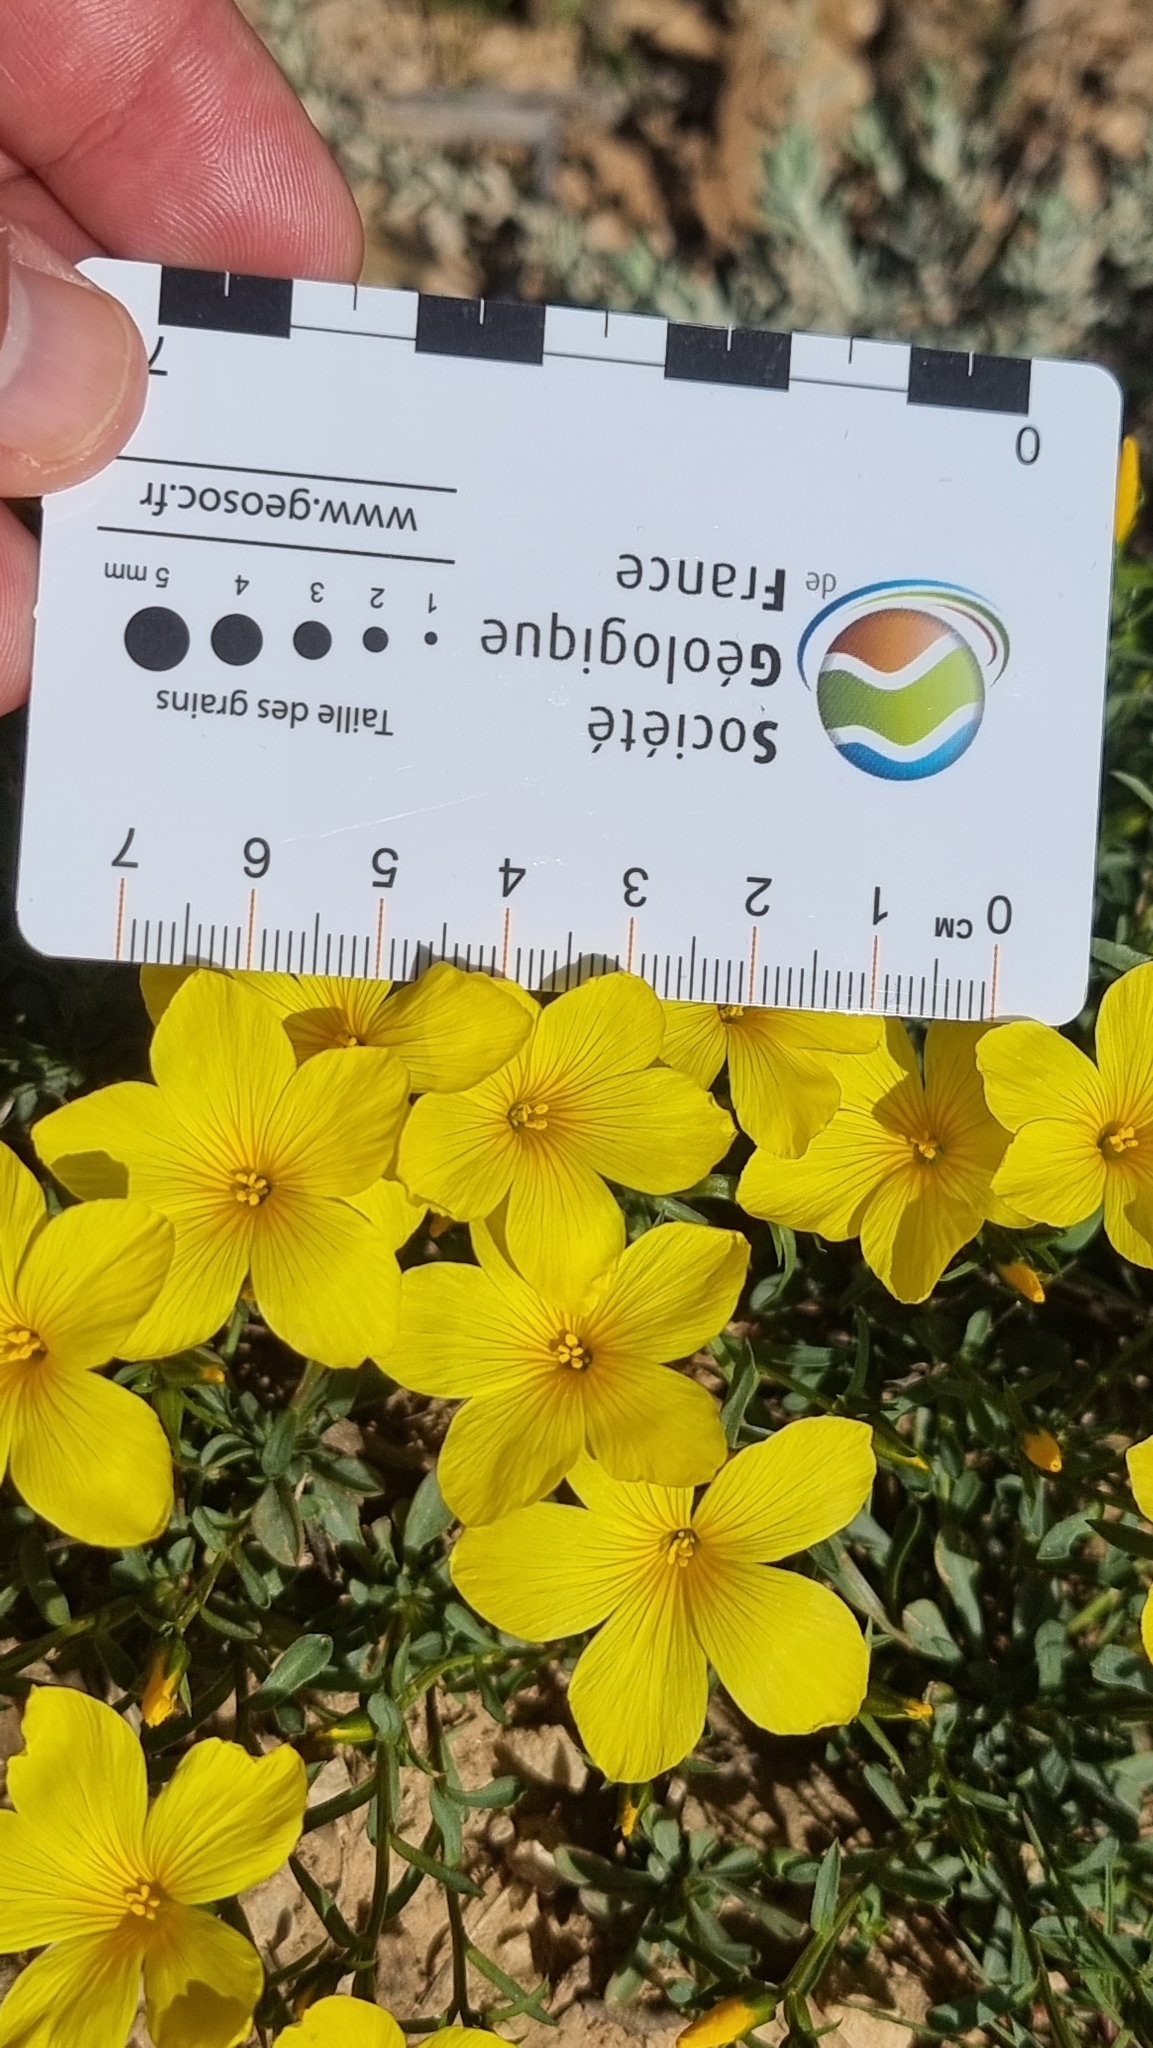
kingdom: Plantae
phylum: Tracheophyta
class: Magnoliopsida
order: Malpighiales
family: Linaceae
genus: Linum
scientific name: Linum campanulatum
